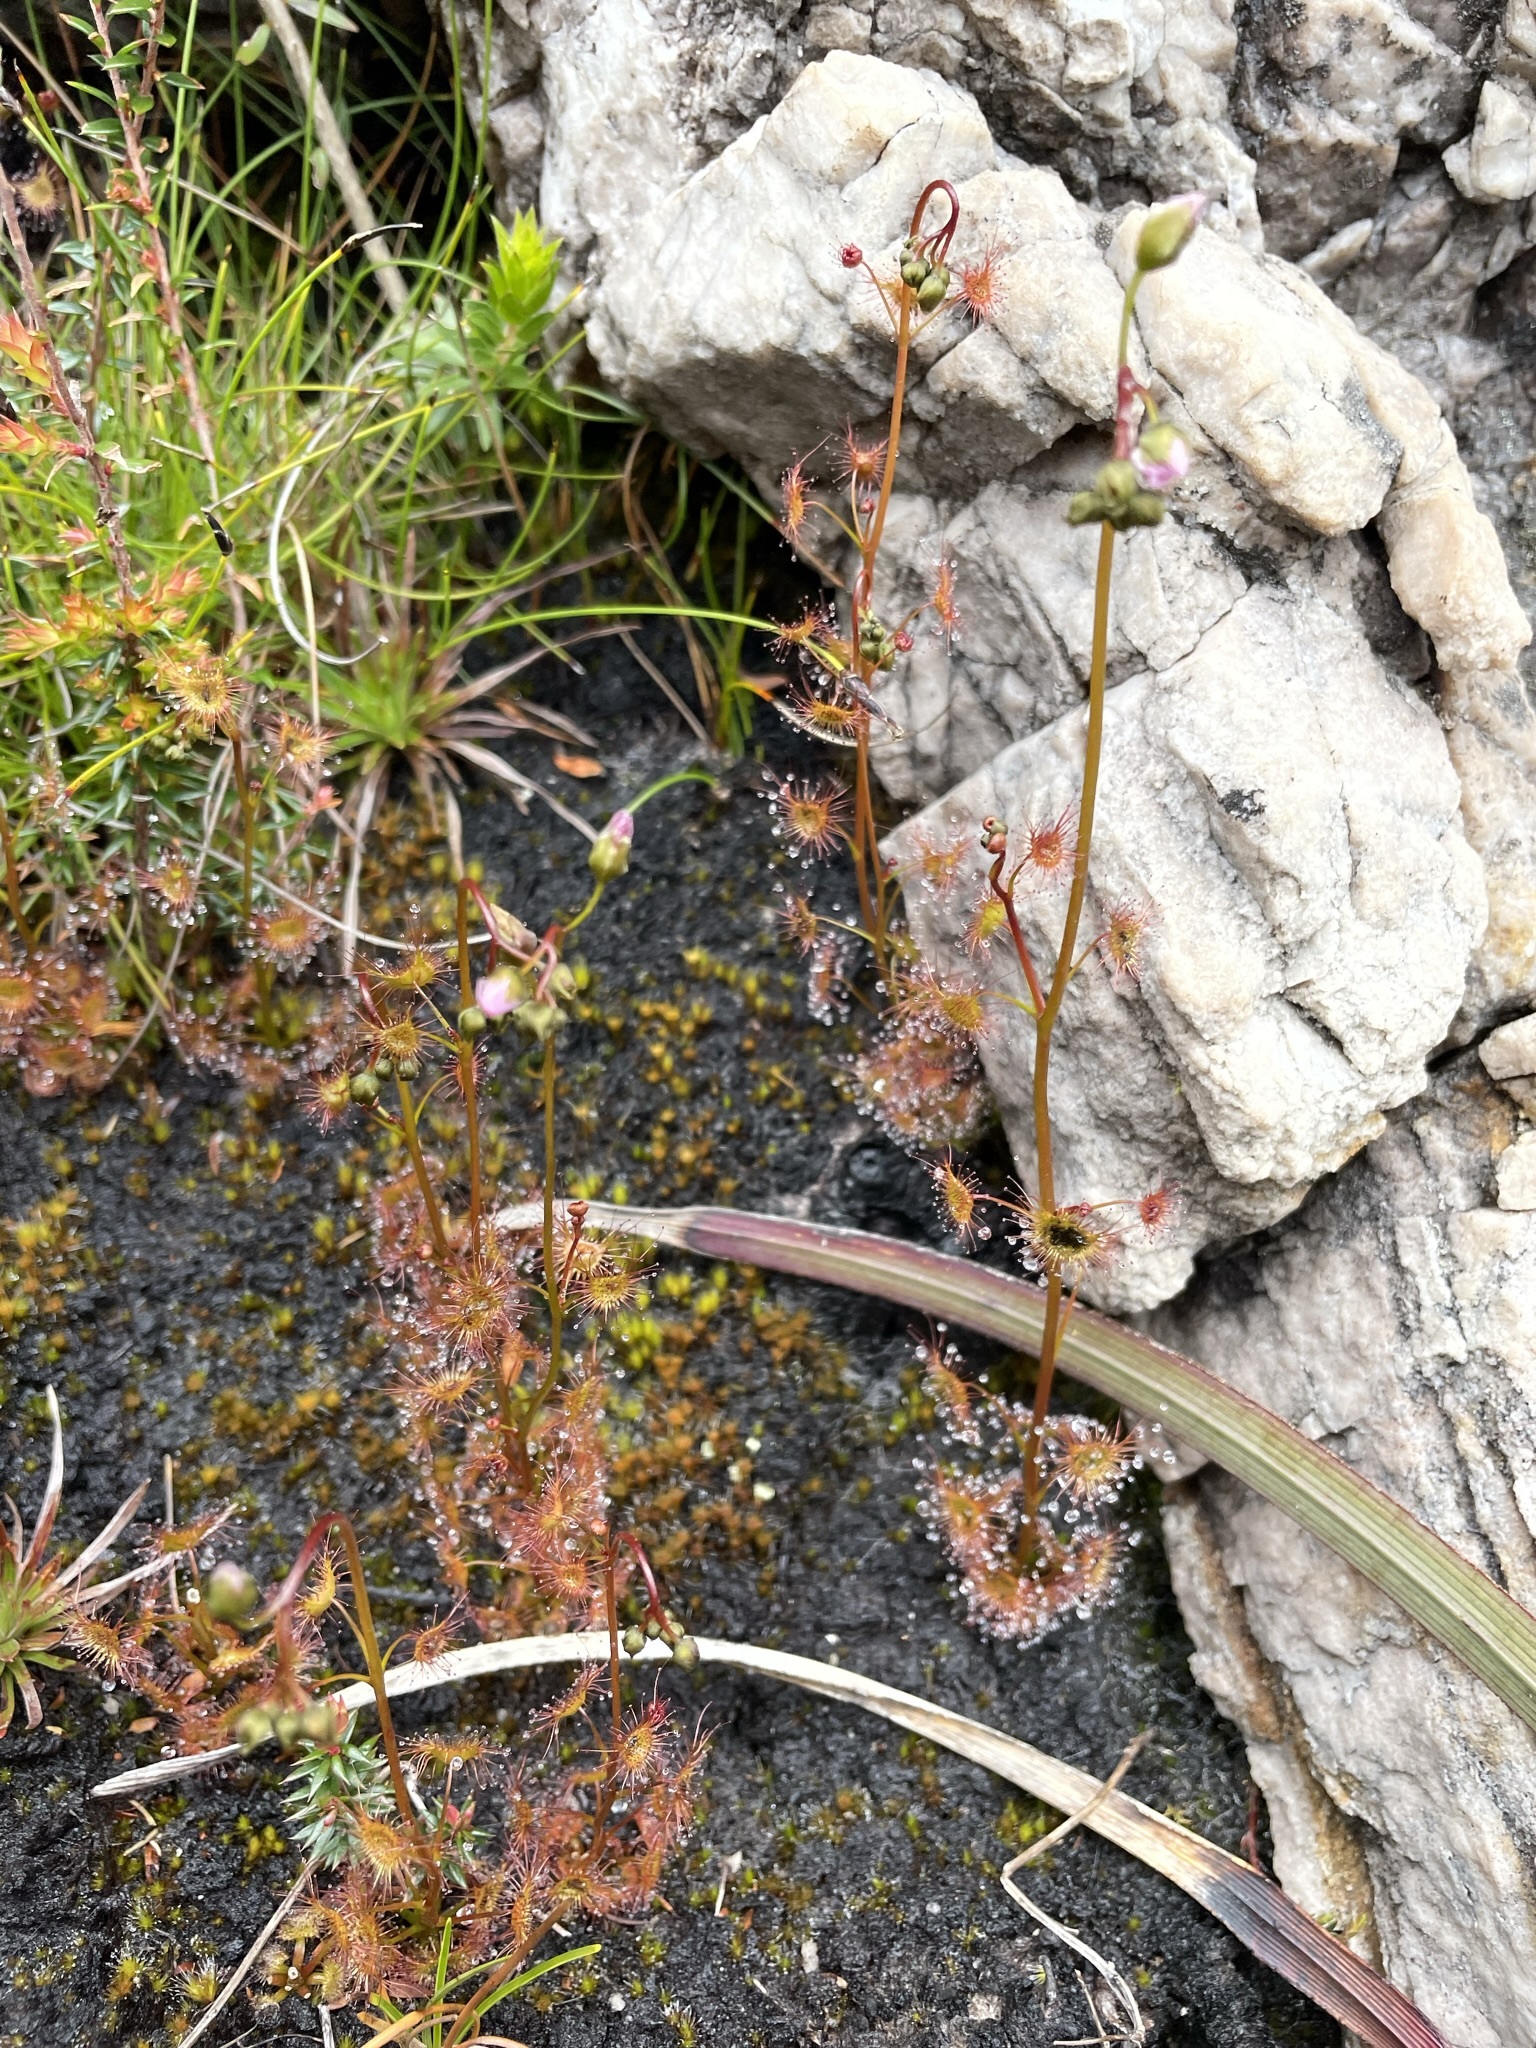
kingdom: Plantae
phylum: Tracheophyta
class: Magnoliopsida
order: Caryophyllales
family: Droseraceae
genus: Drosera
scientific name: Drosera peltata
